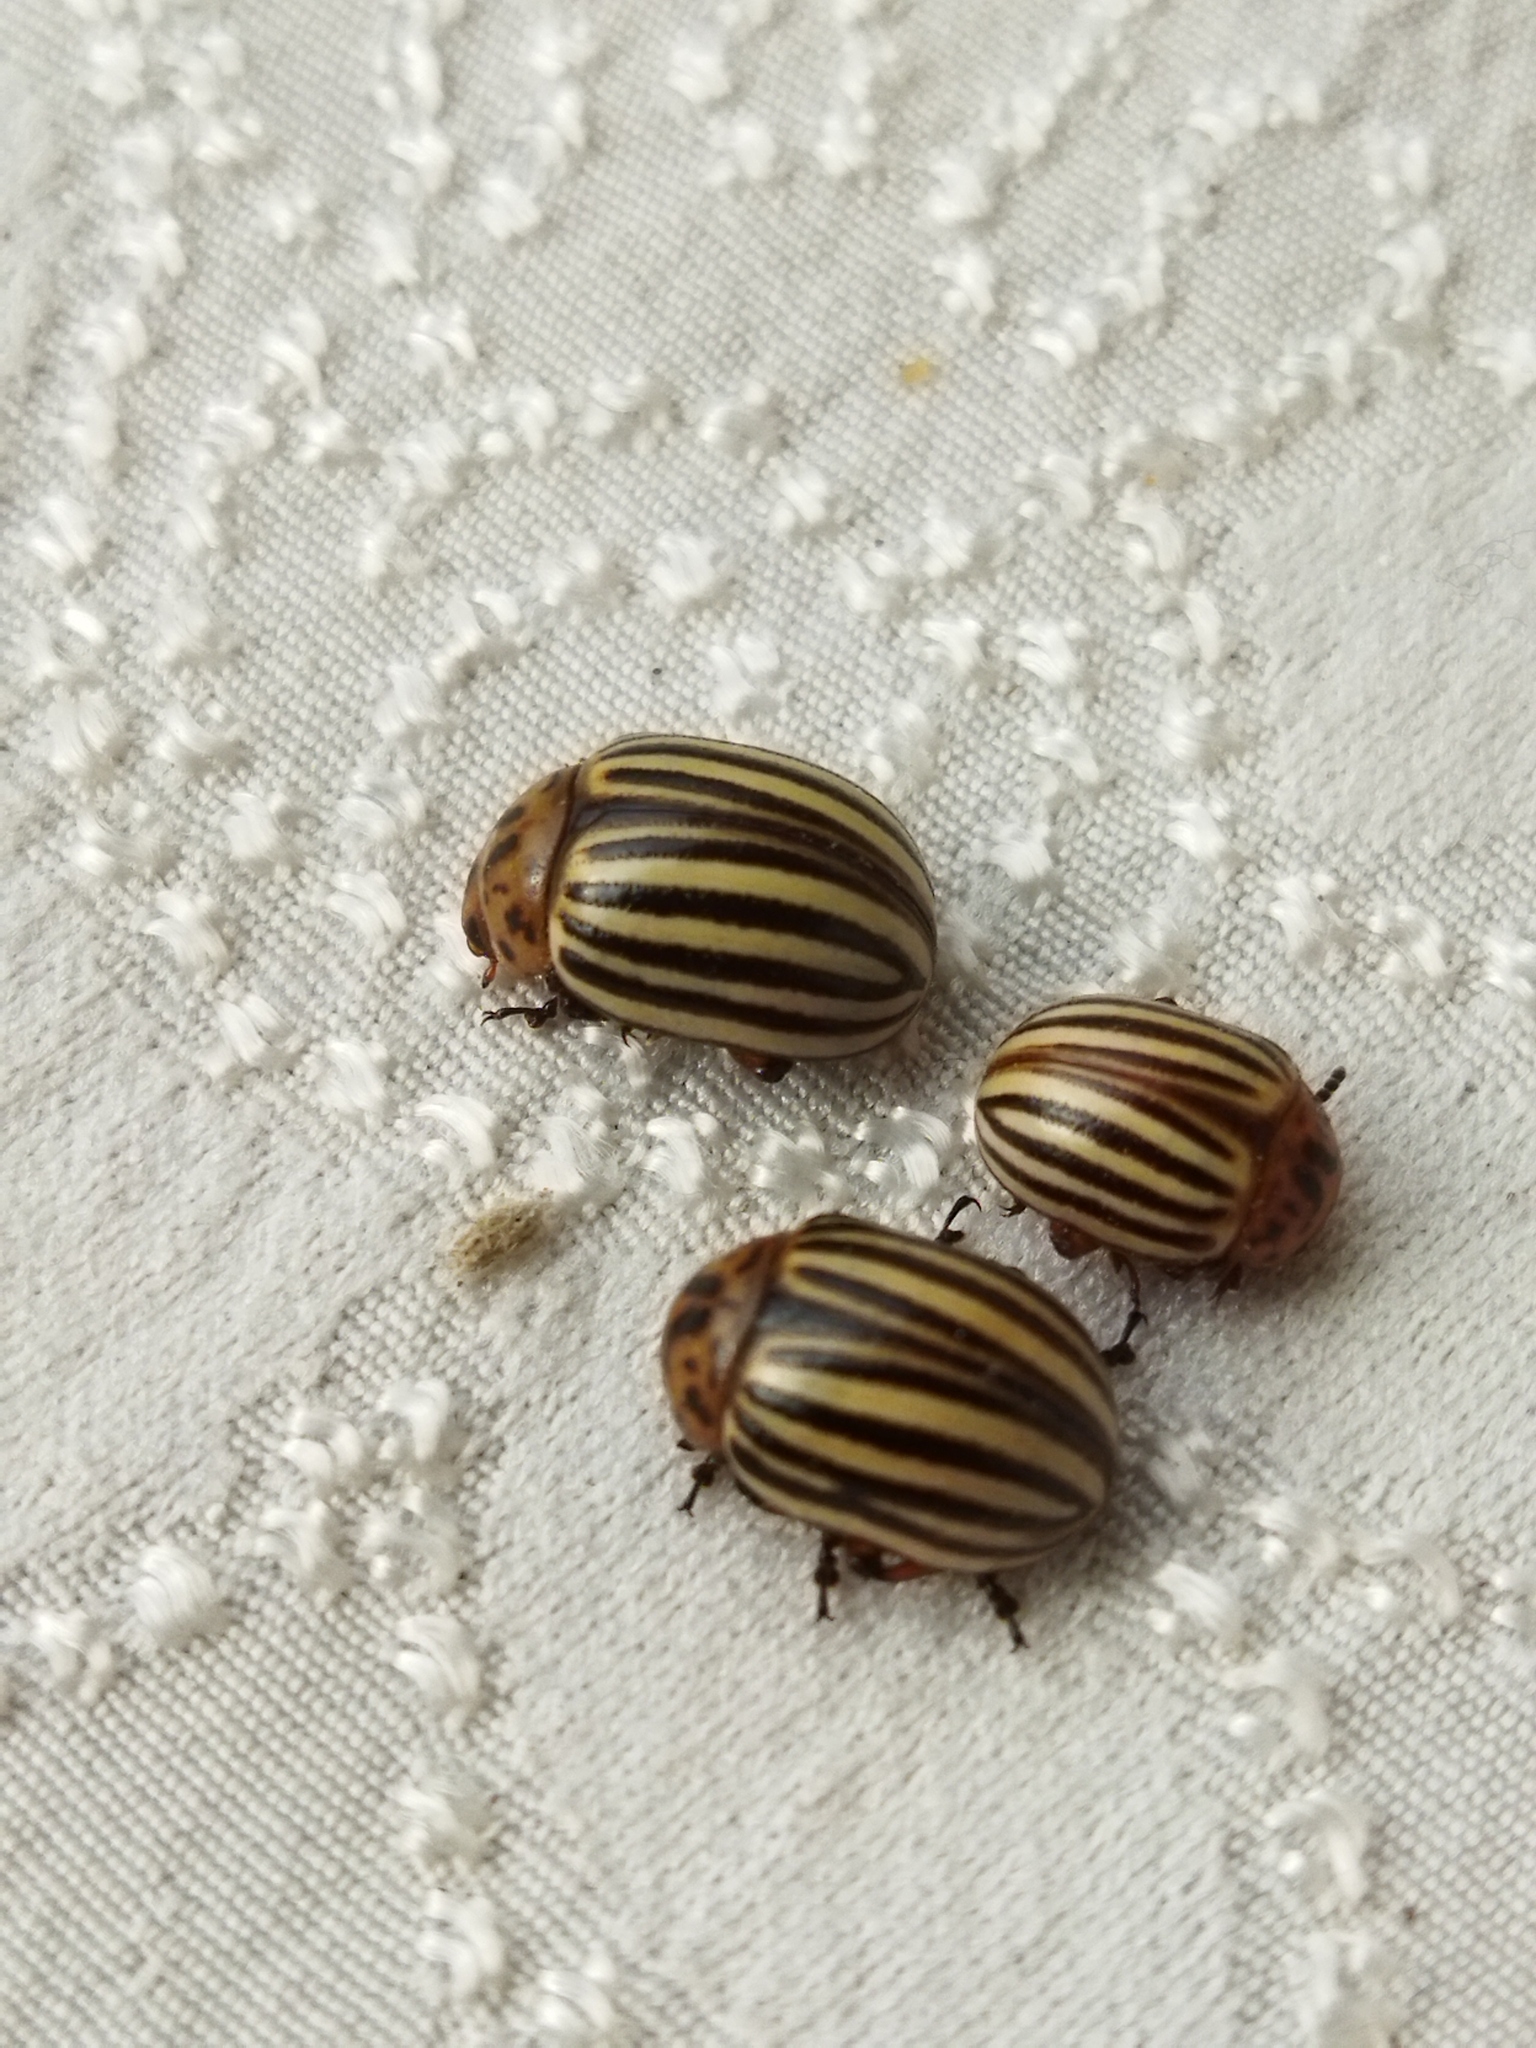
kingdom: Animalia
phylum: Arthropoda
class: Insecta
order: Coleoptera
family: Chrysomelidae
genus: Leptinotarsa
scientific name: Leptinotarsa decemlineata
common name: Colorado potato beetle
